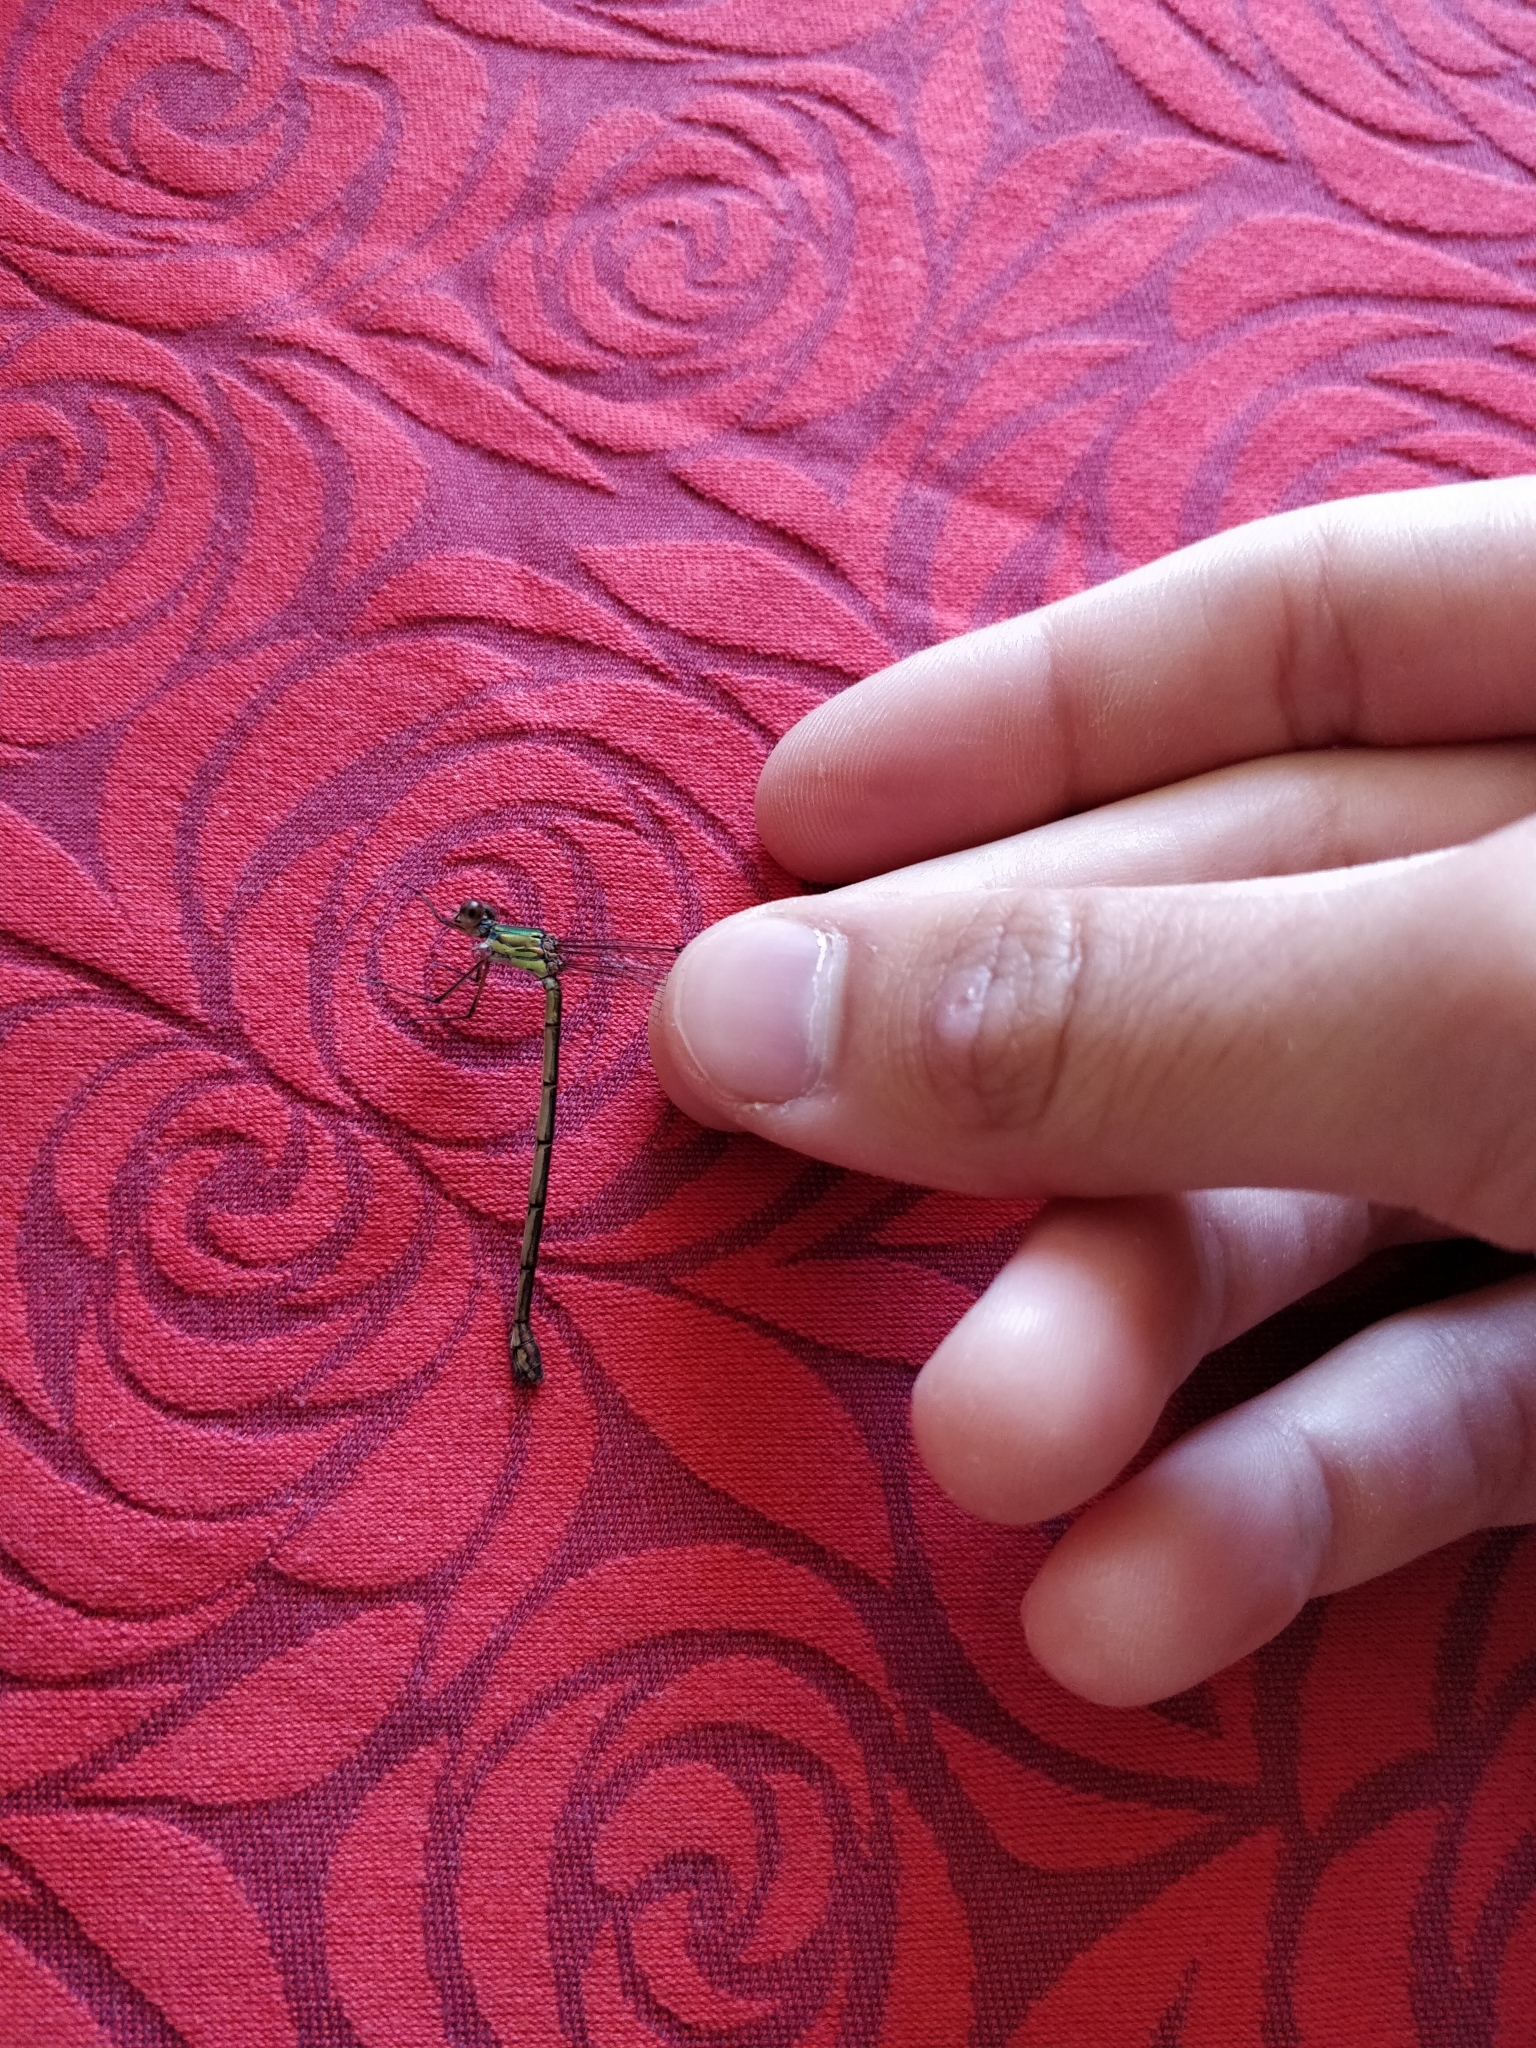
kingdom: Animalia
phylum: Arthropoda
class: Insecta
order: Odonata
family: Lestidae
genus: Chalcolestes
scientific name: Chalcolestes viridis
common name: Green emerald damselfly
